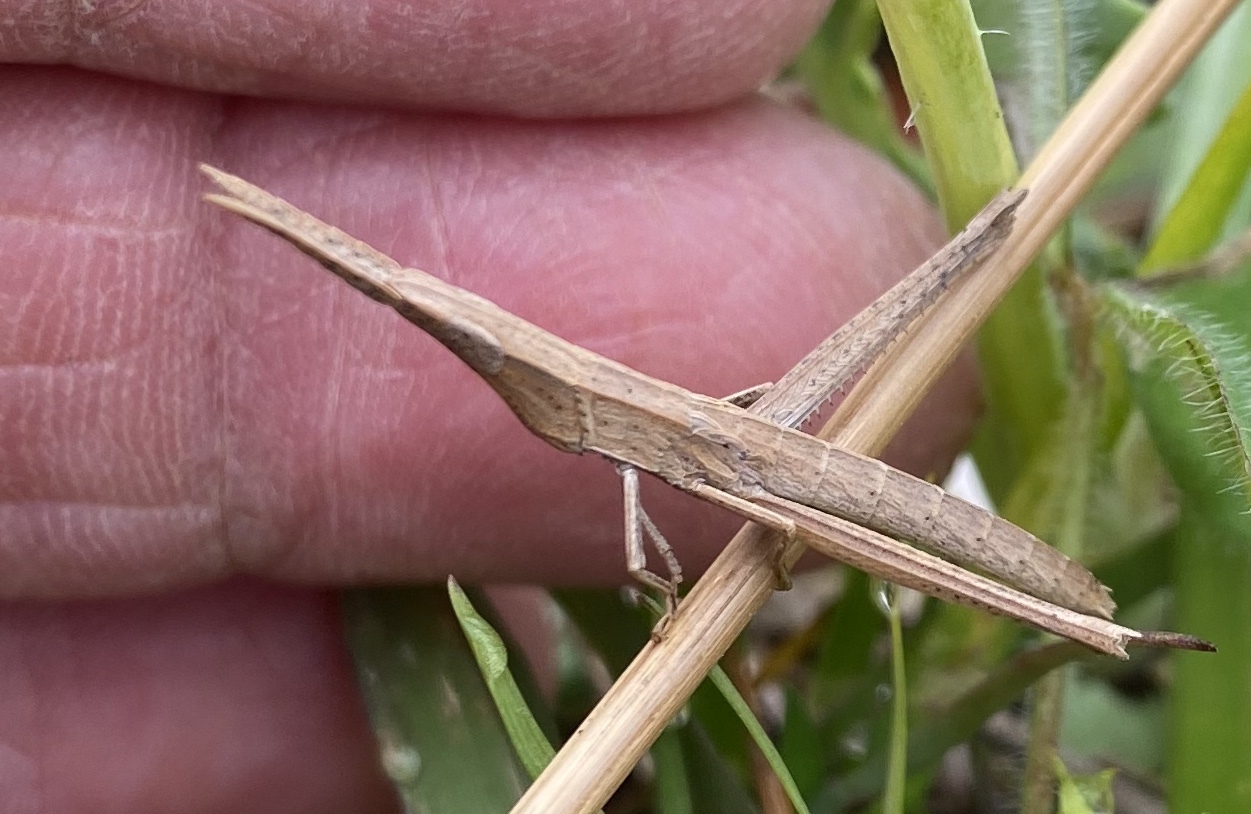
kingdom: Animalia
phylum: Arthropoda
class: Insecta
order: Orthoptera
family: Acrididae
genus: Achurum
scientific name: Achurum carinatum
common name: Long-headed toothpick grasshopper
